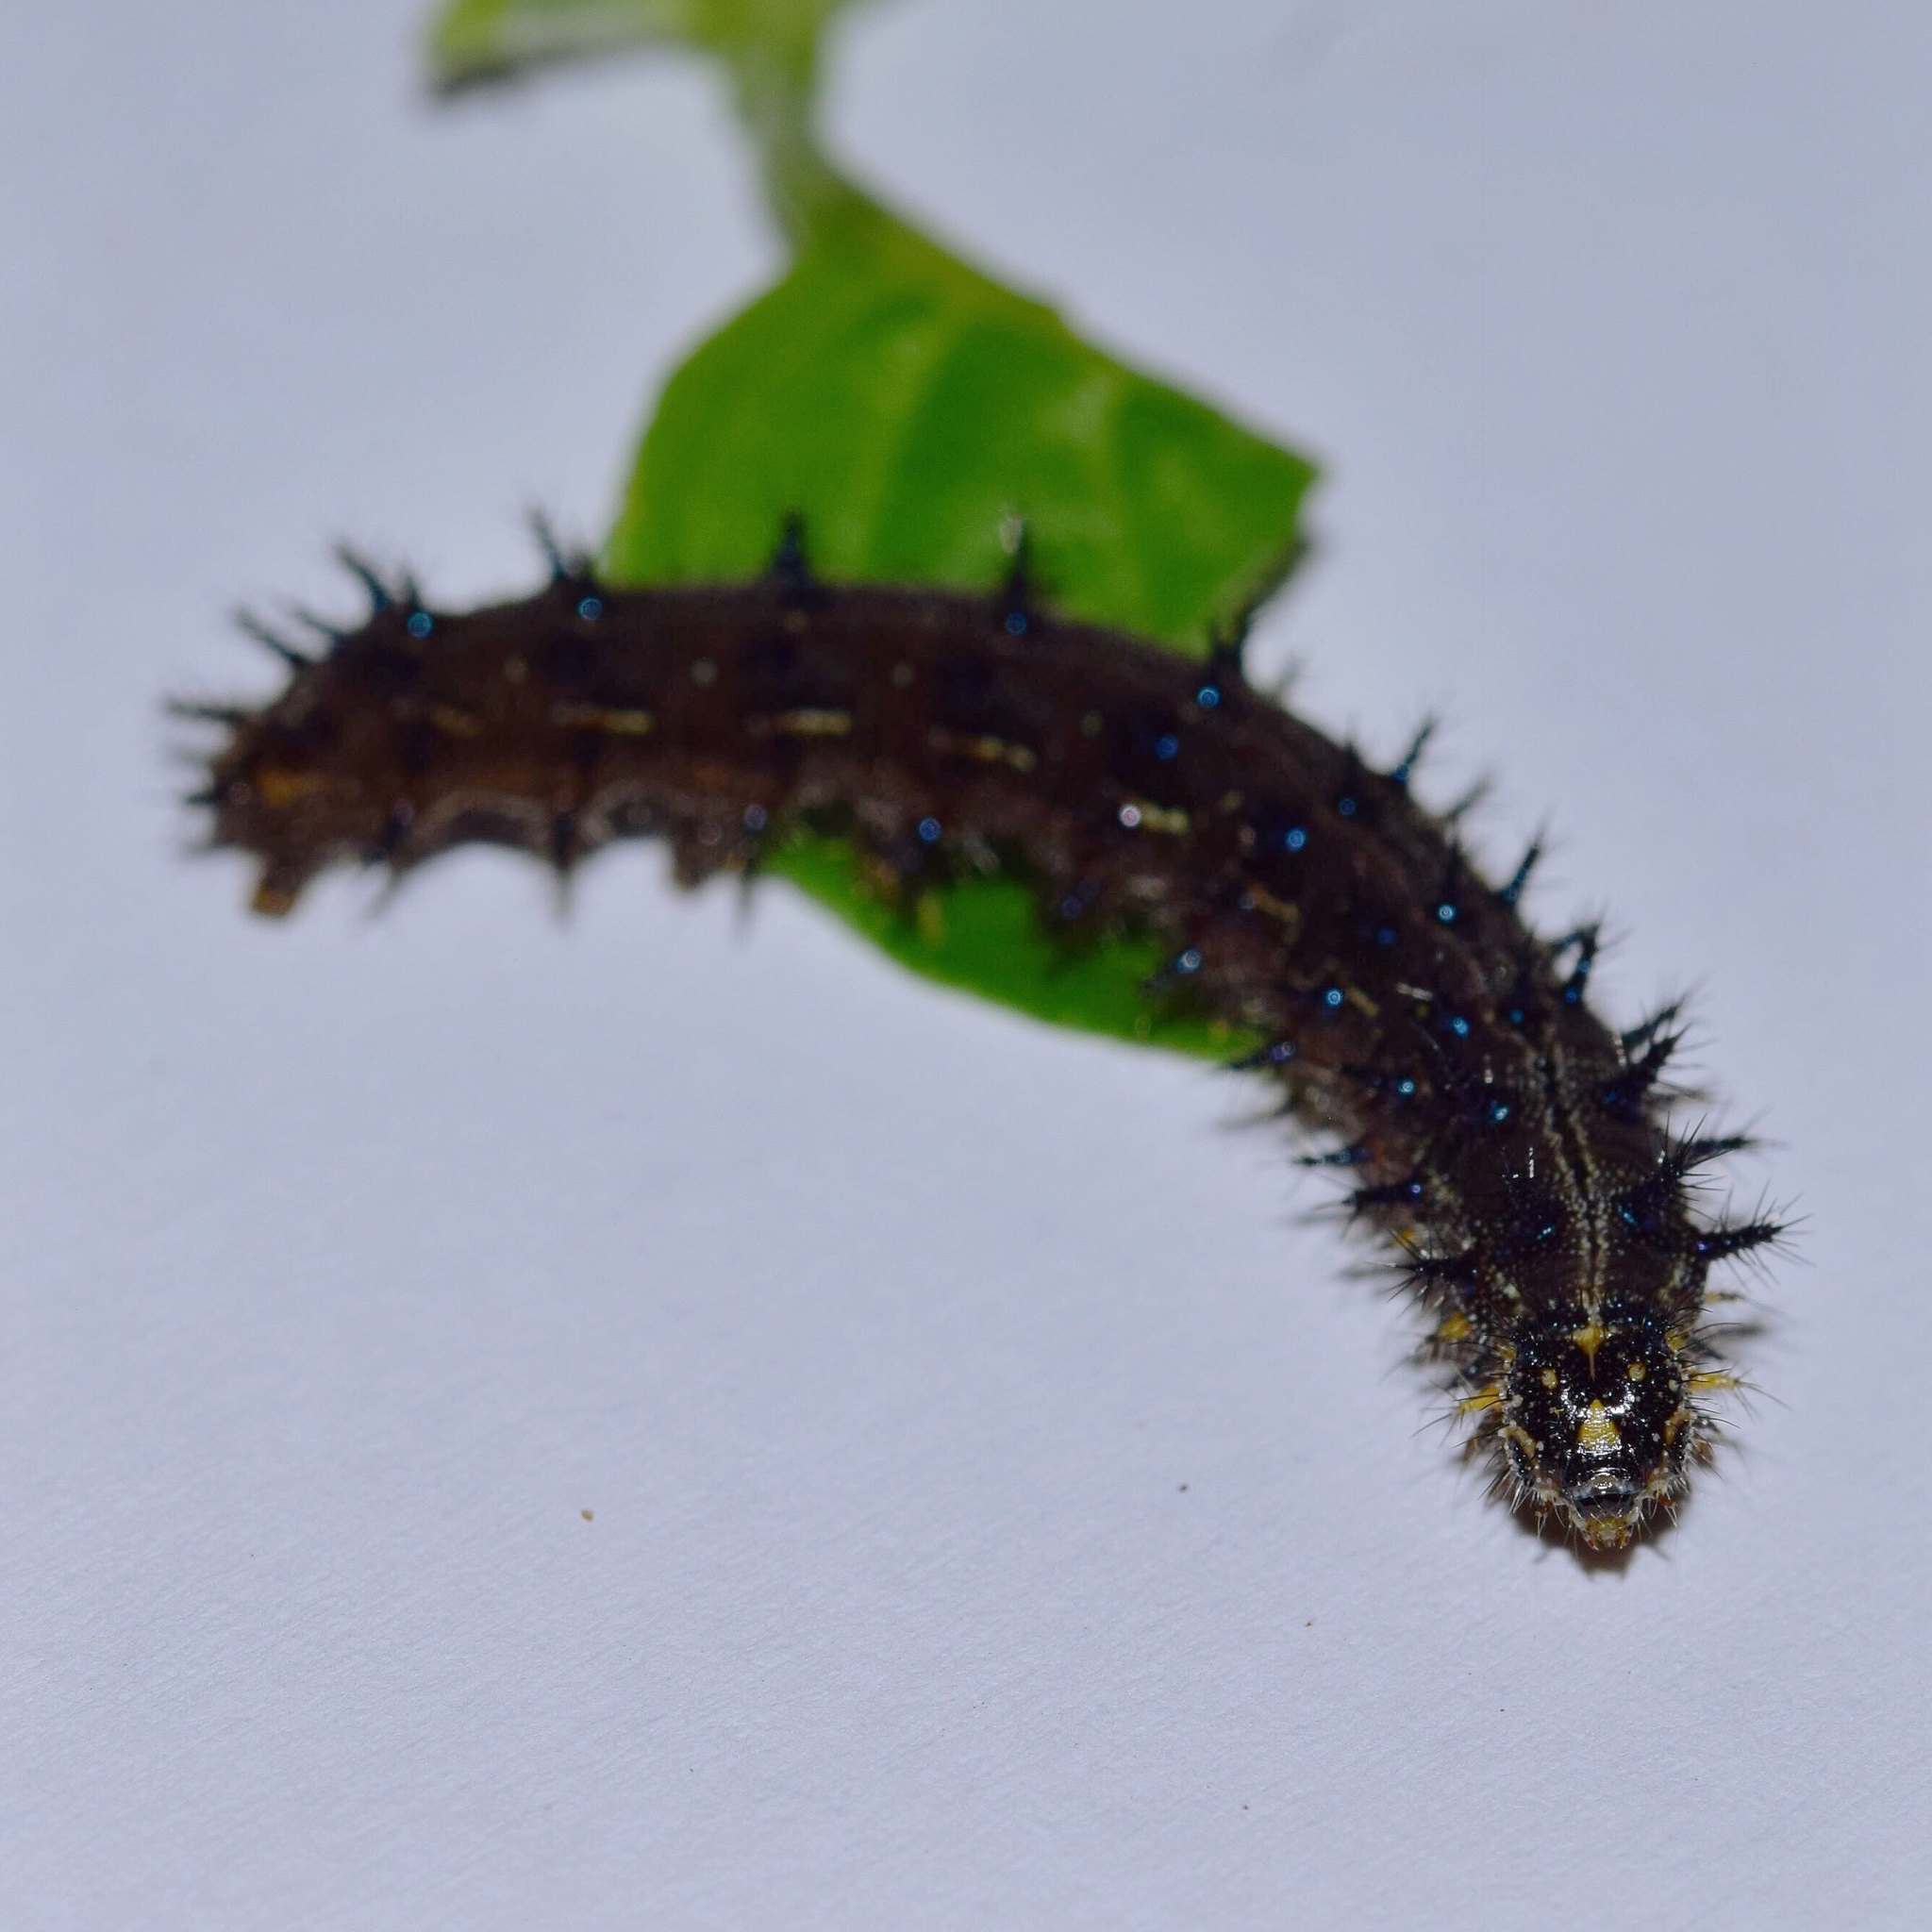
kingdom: Animalia
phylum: Arthropoda
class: Insecta
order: Lepidoptera
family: Nymphalidae
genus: Junonia
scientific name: Junonia oenone
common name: Dark blue pansy
